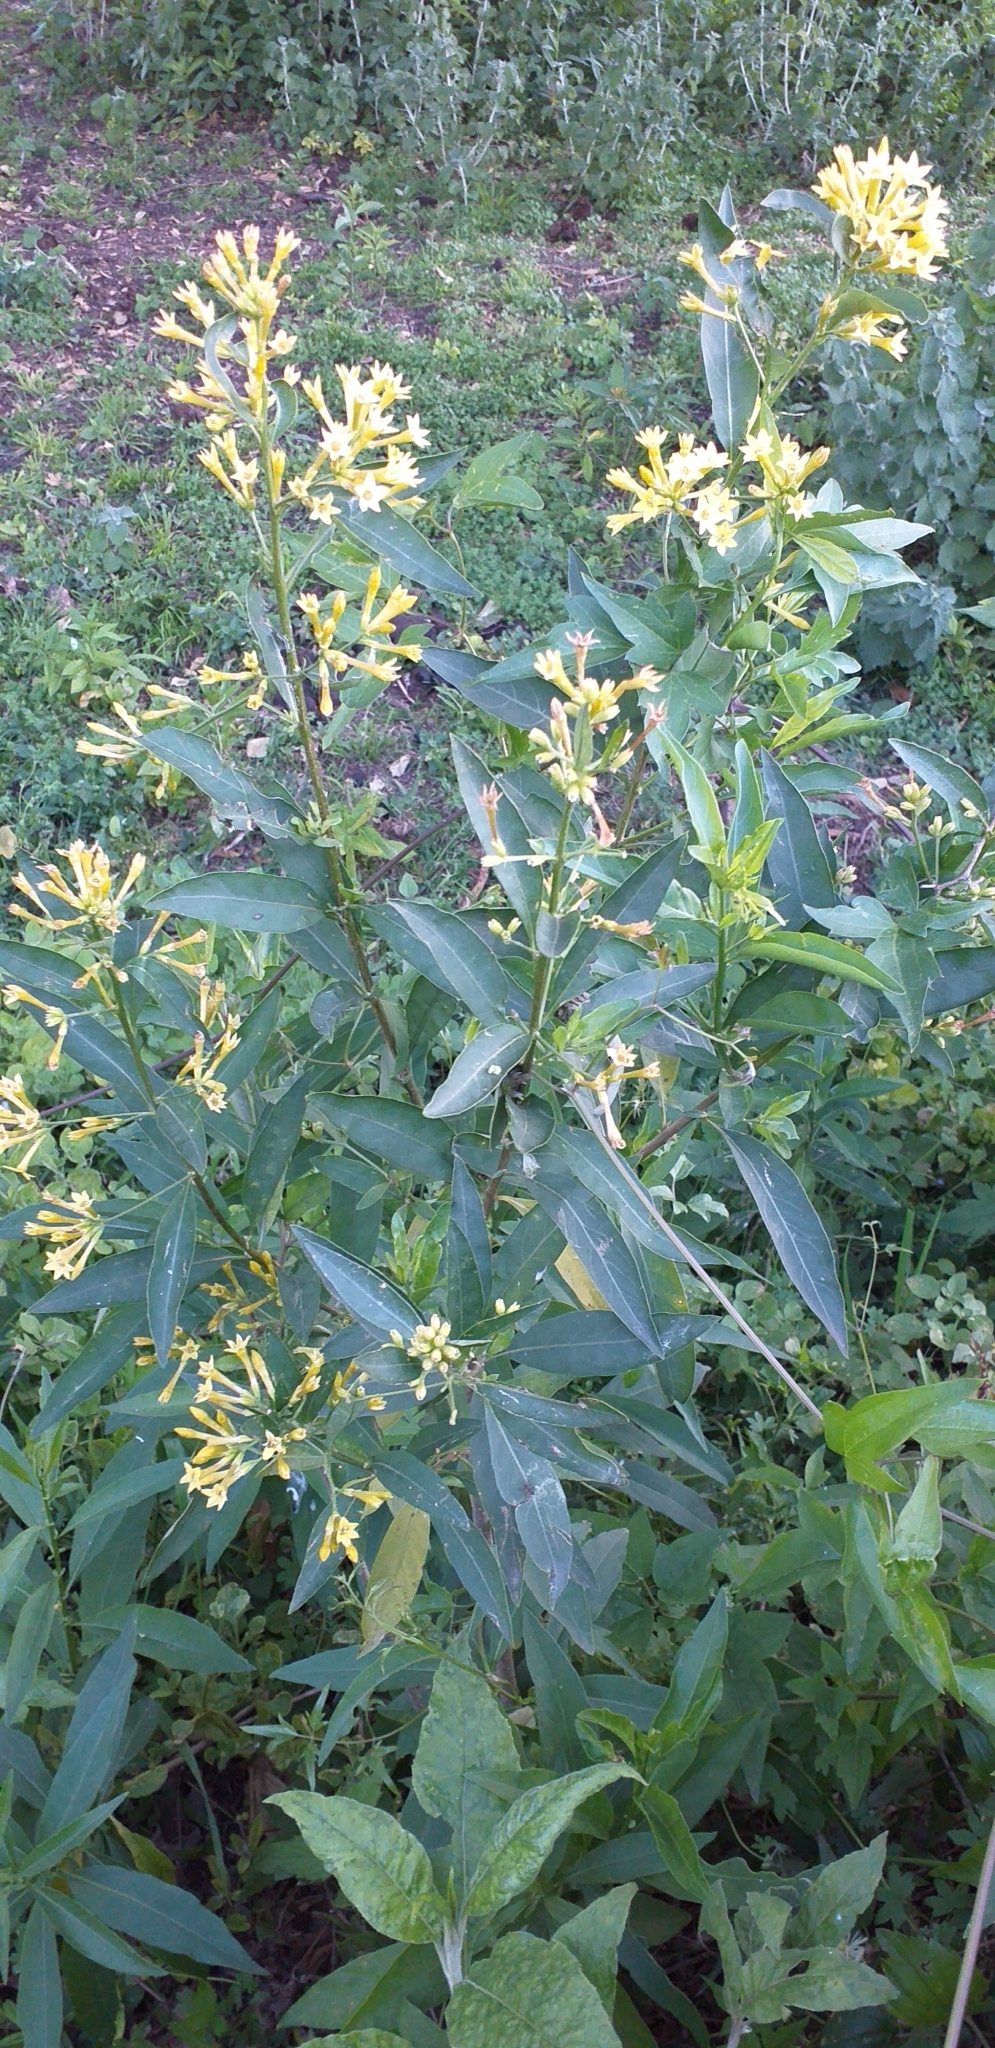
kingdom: Plantae
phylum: Tracheophyta
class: Magnoliopsida
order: Solanales
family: Solanaceae
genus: Cestrum
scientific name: Cestrum parqui
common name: Chilean cestrum
